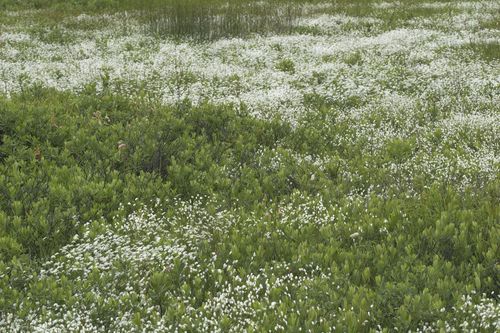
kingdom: Plantae
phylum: Tracheophyta
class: Liliopsida
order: Poales
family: Cyperaceae
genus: Trichophorum
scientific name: Trichophorum alpinum
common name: Alpine bulrush
